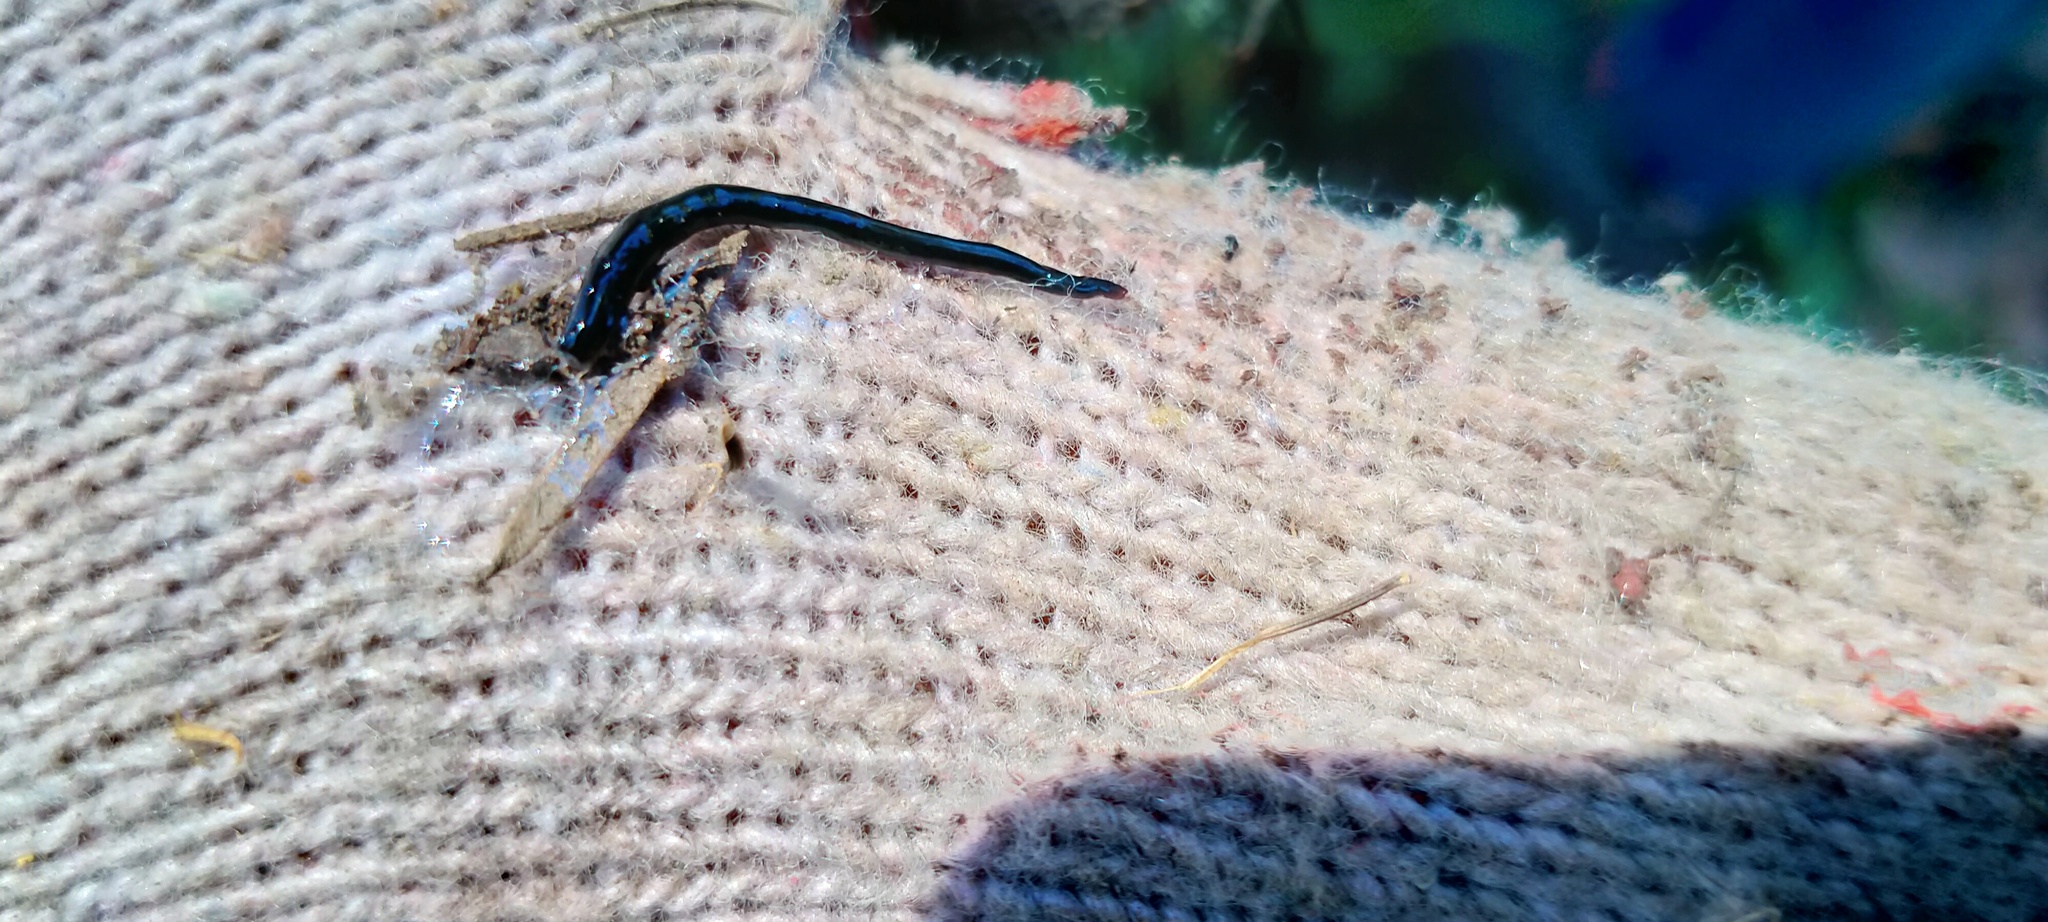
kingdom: Animalia
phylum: Platyhelminthes
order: Tricladida
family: Geoplanidae
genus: Caenoplana
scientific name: Caenoplana coerulea
